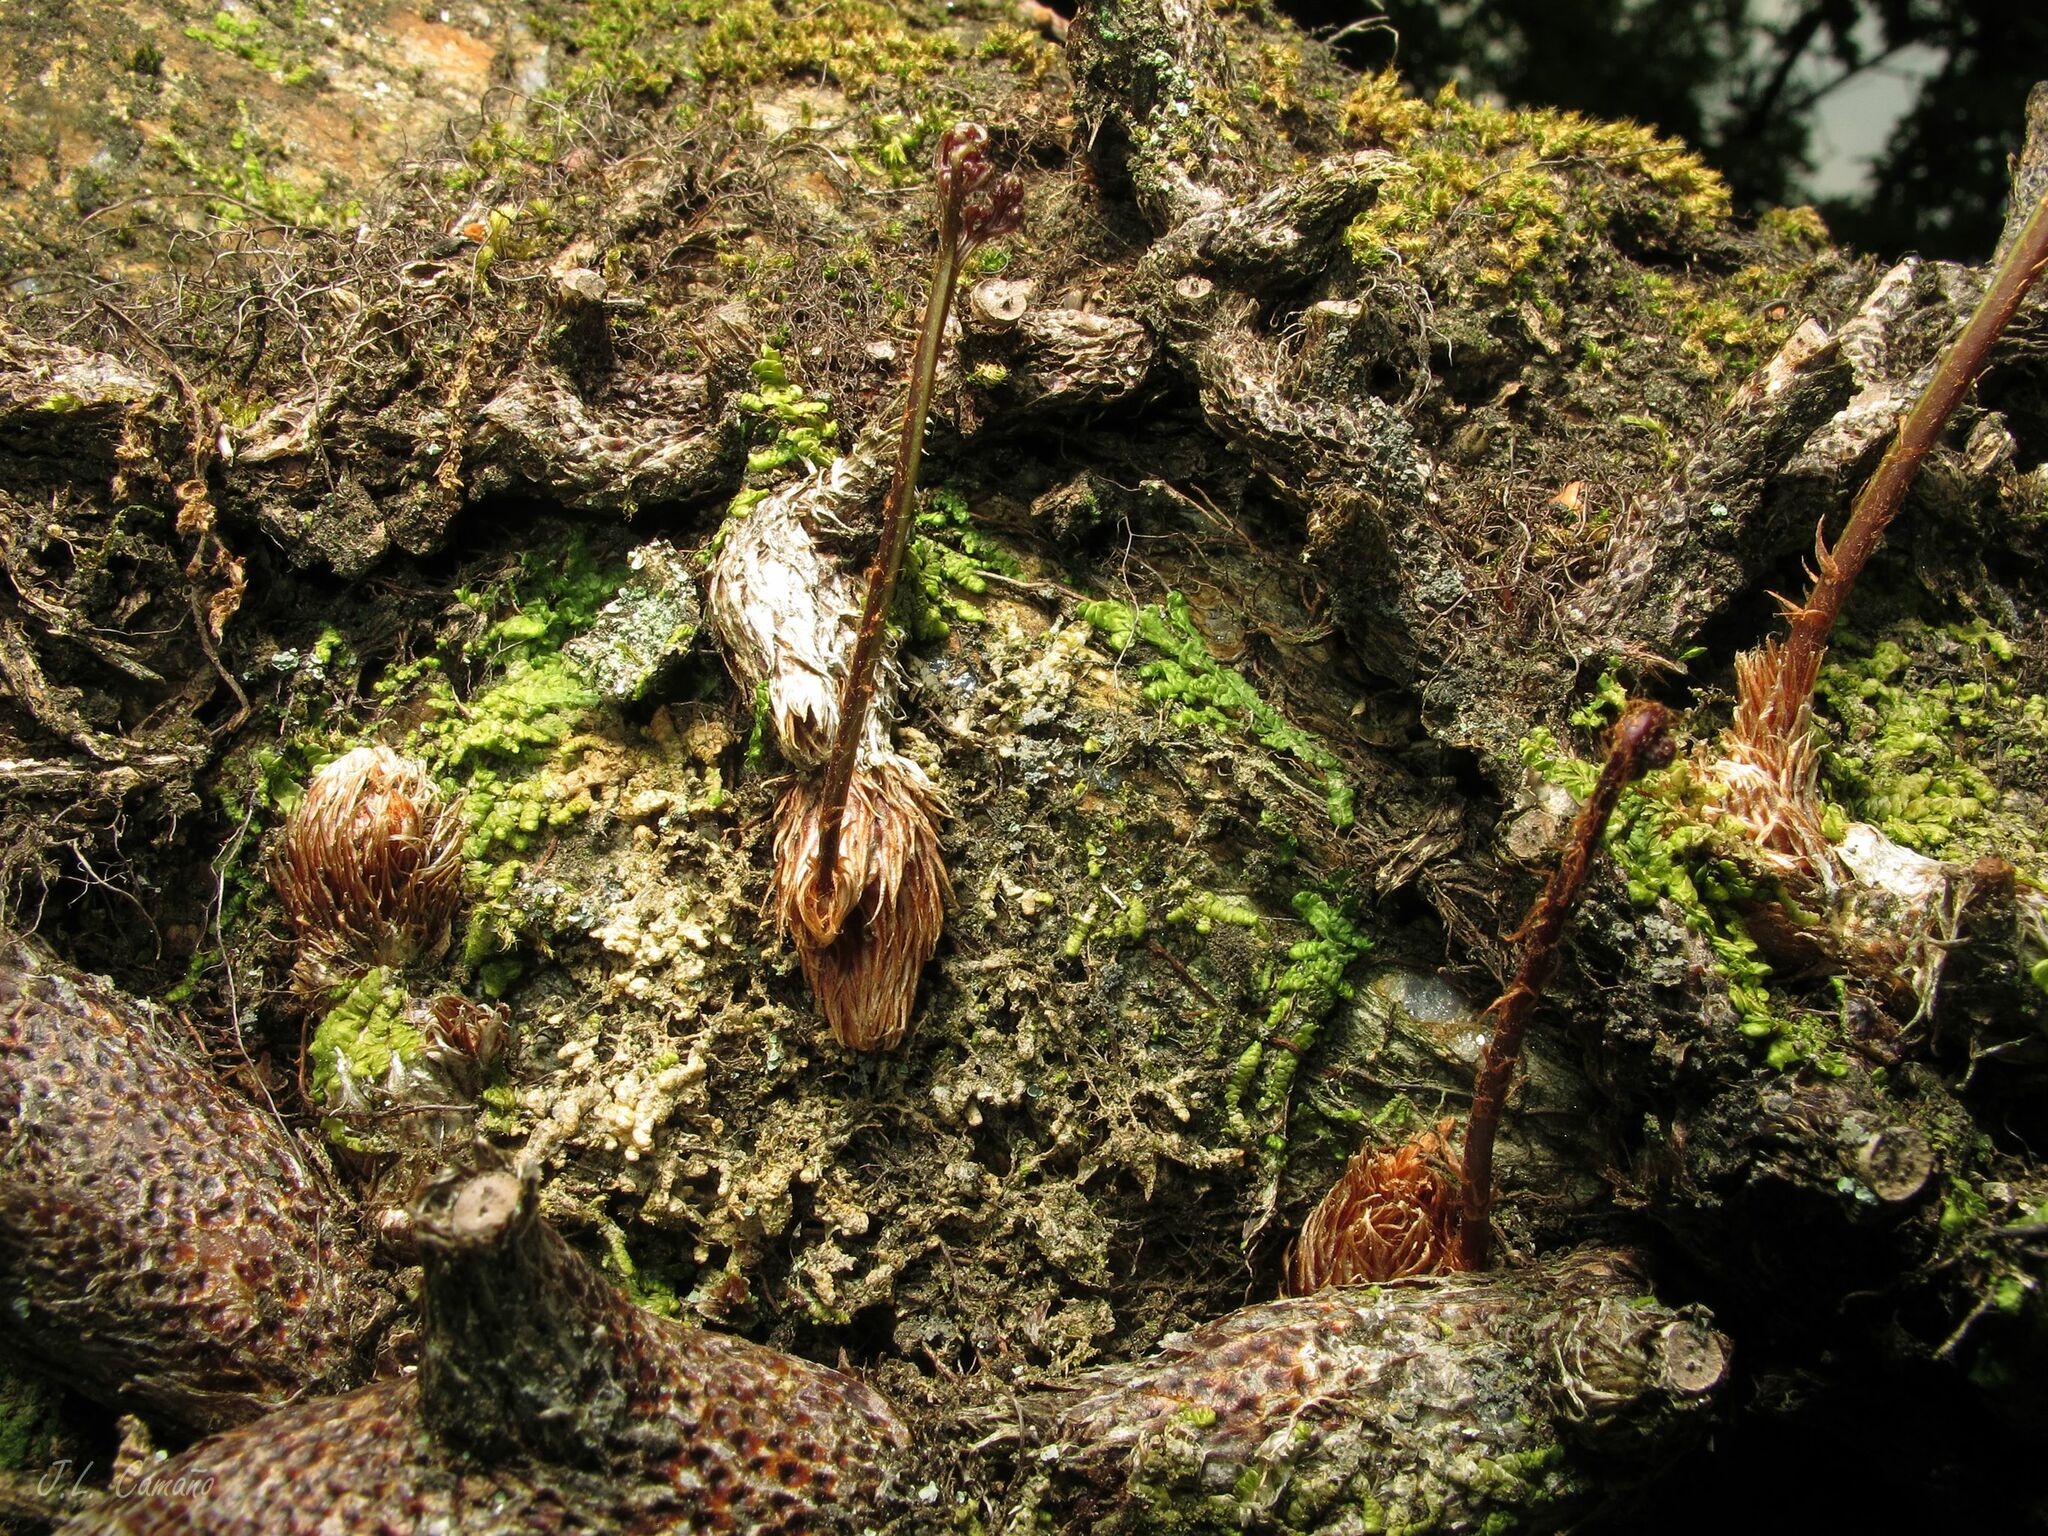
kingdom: Plantae
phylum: Tracheophyta
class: Polypodiopsida
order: Polypodiales
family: Davalliaceae
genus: Davallia
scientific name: Davallia canariensis
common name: Hare's-foot fern
